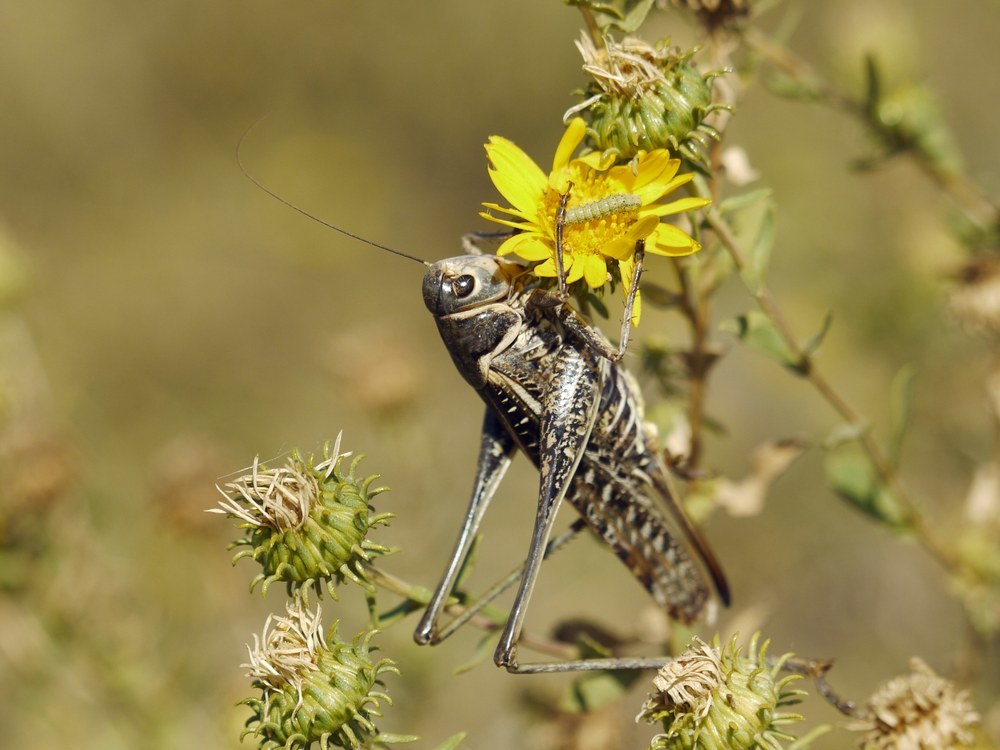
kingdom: Animalia
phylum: Arthropoda
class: Insecta
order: Orthoptera
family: Tettigoniidae
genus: Decticus
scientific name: Decticus albifrons
